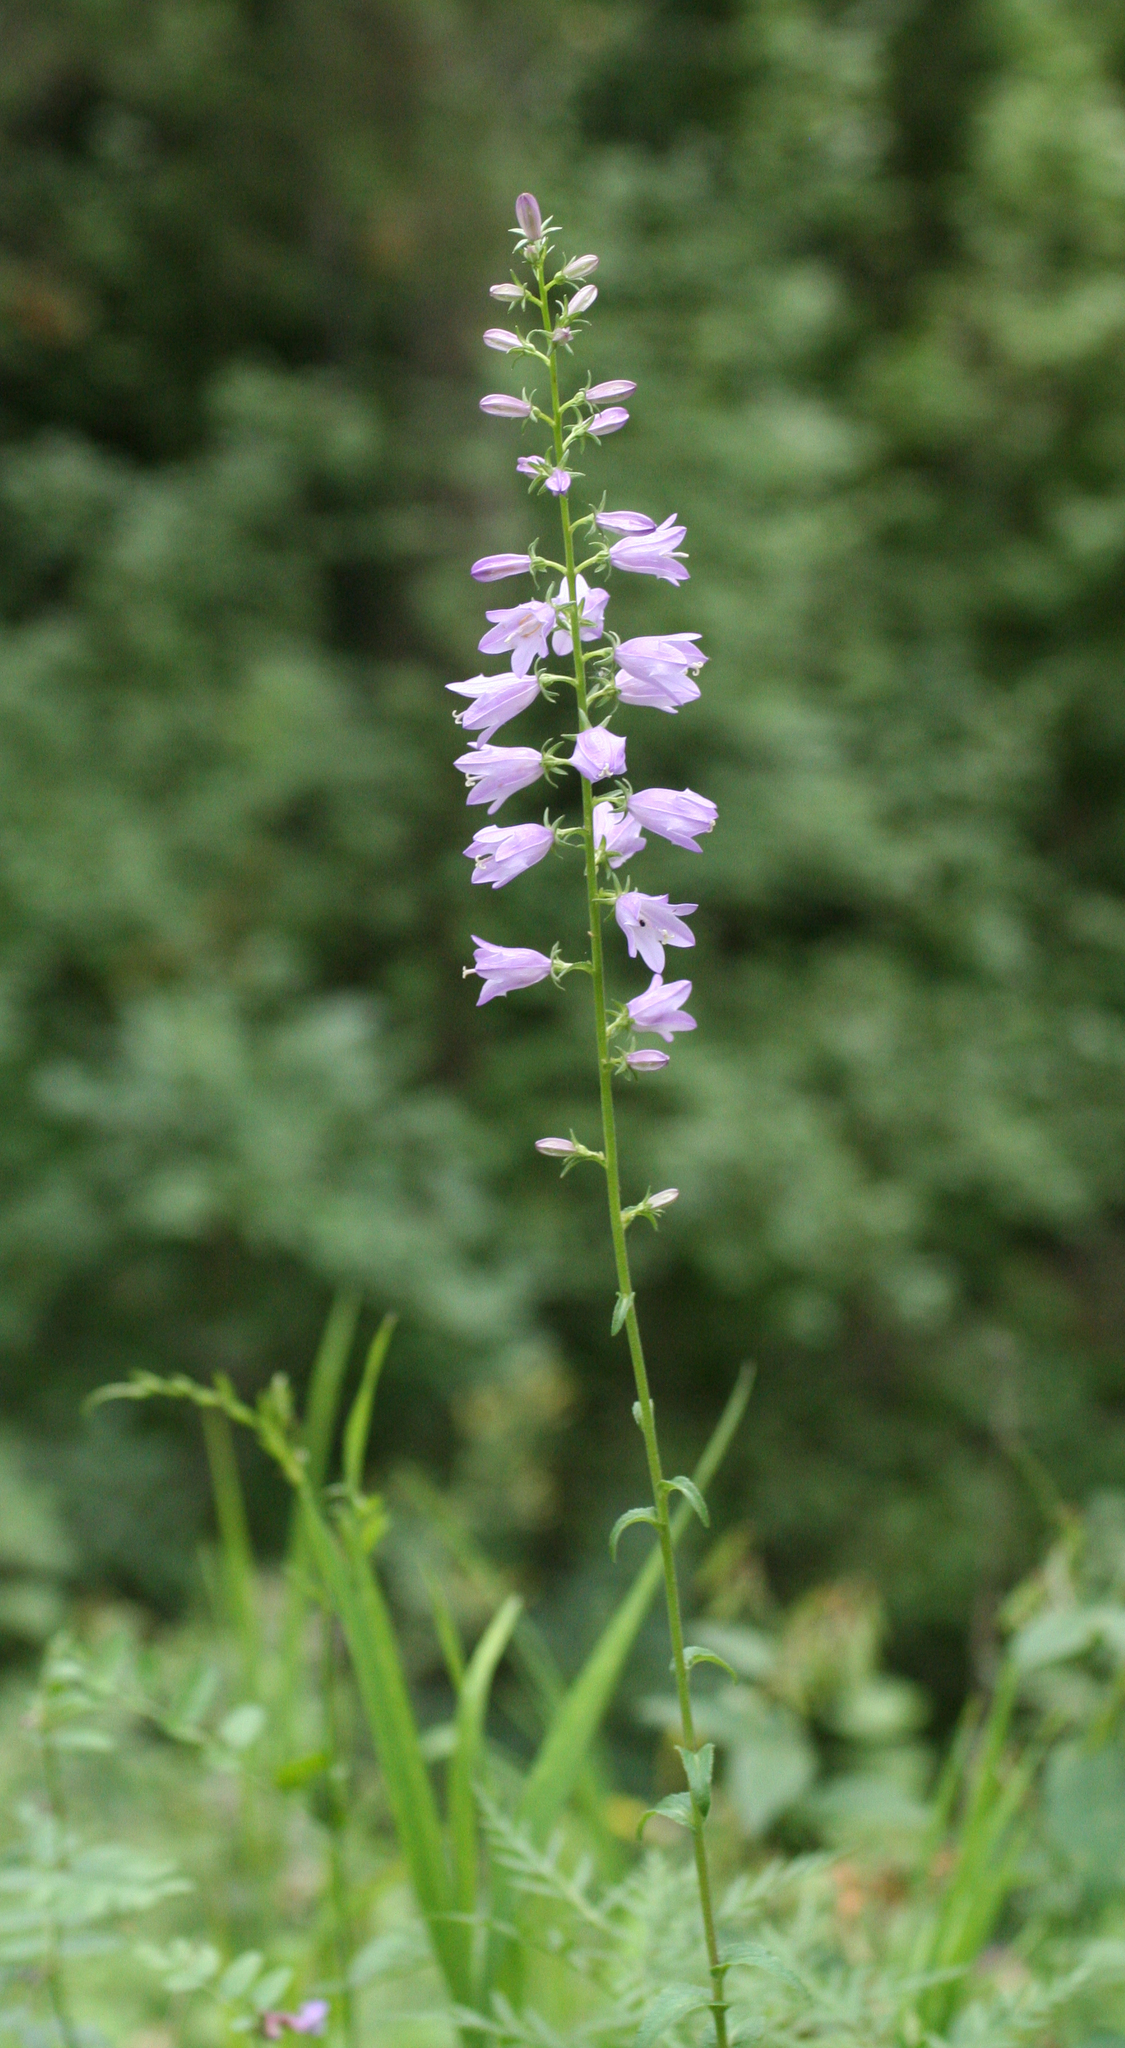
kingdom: Plantae
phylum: Tracheophyta
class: Magnoliopsida
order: Asterales
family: Campanulaceae
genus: Campanula
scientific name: Campanula bononiensis
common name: Pale bellflower
